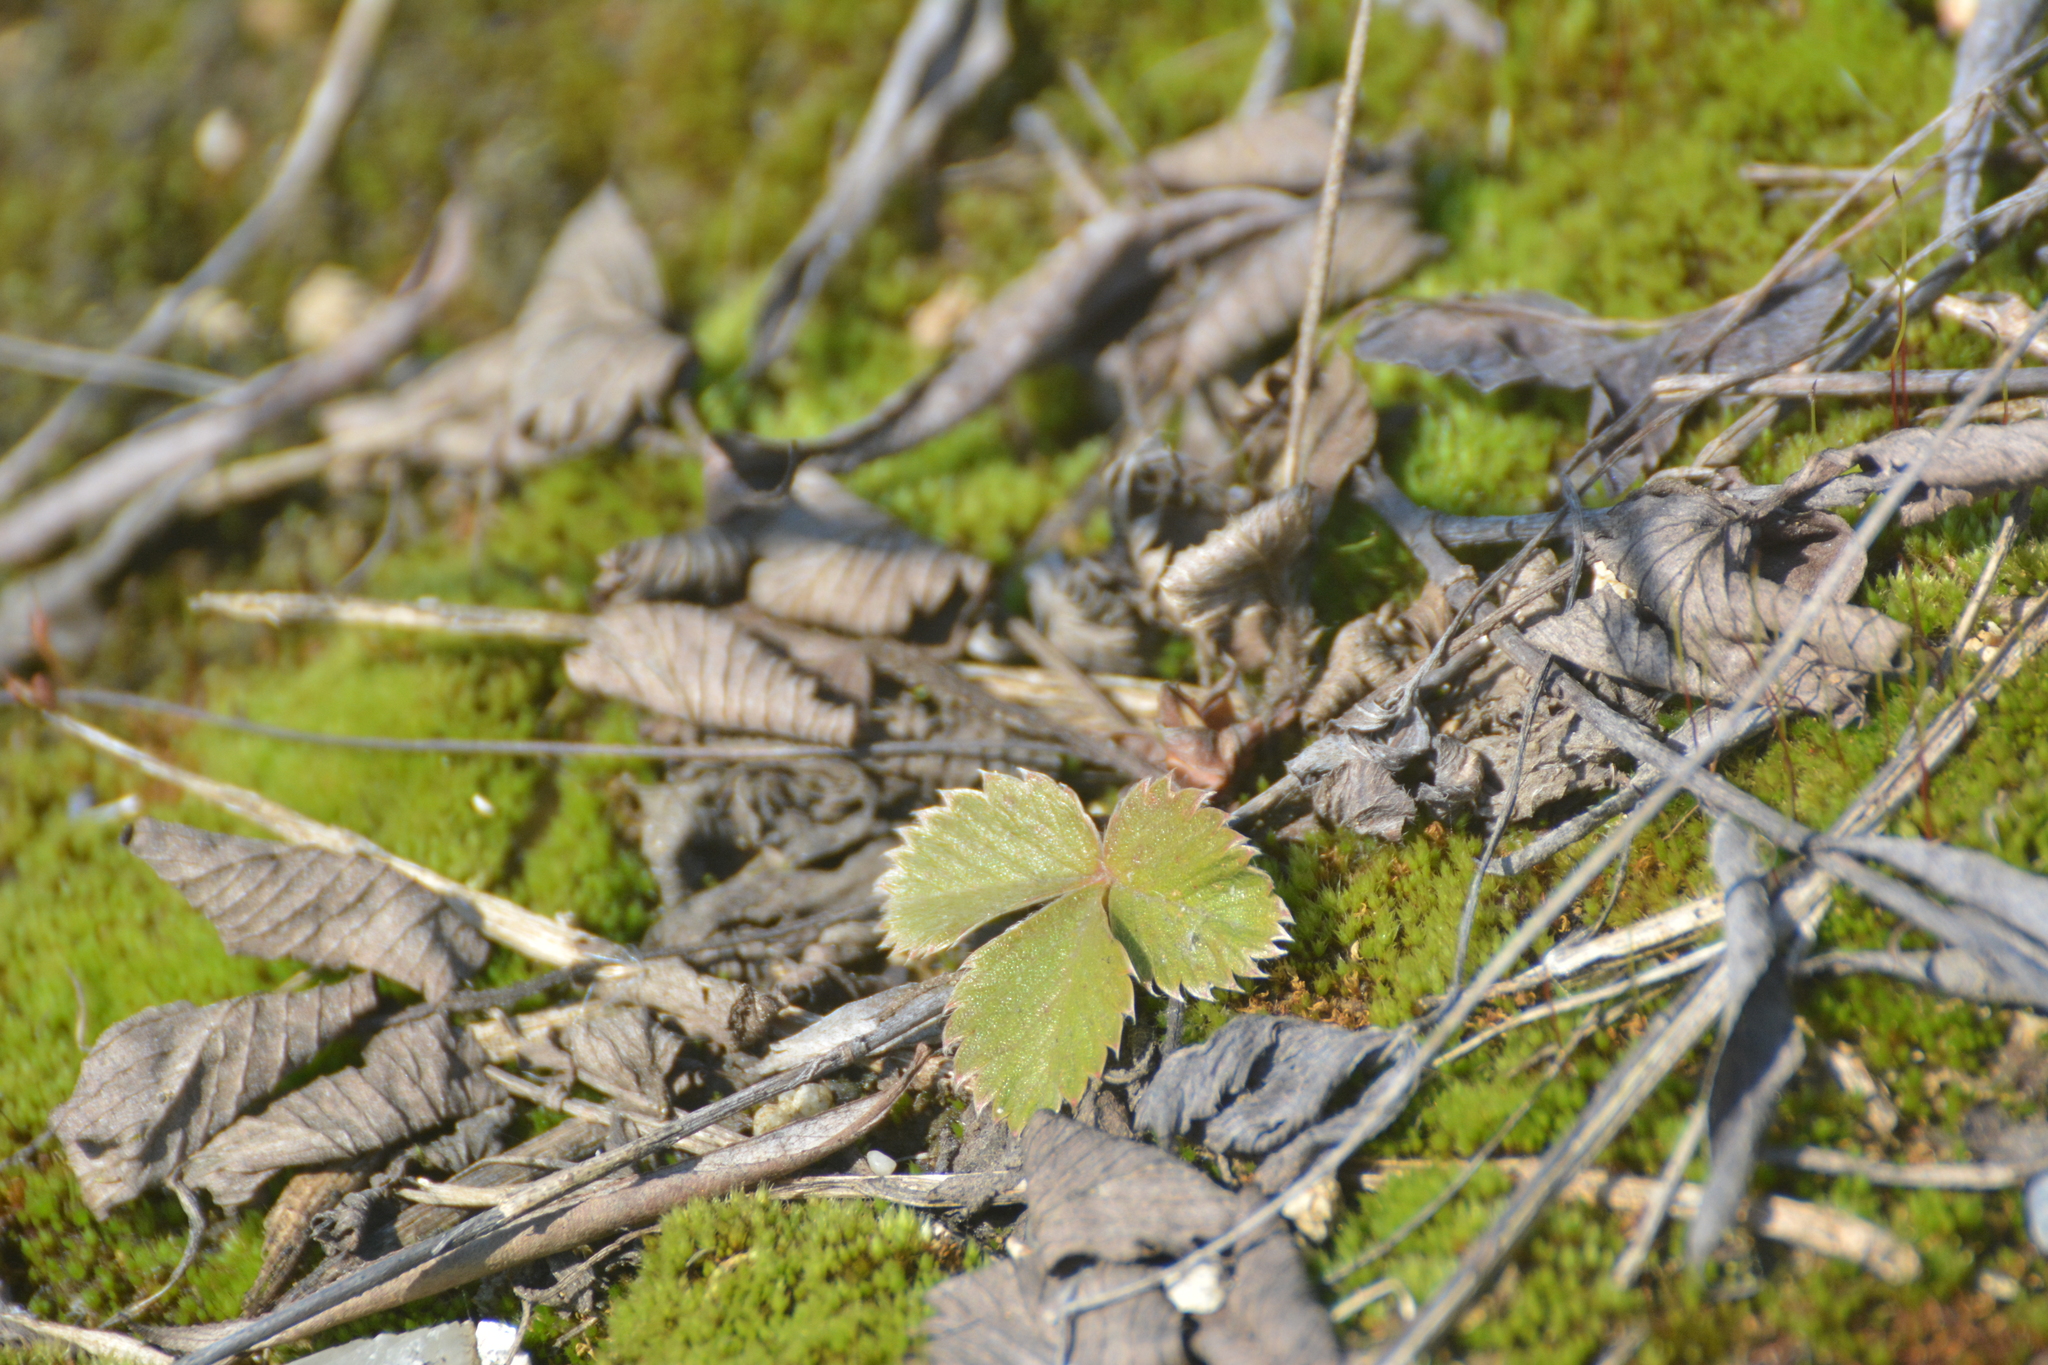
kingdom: Plantae
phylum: Tracheophyta
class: Magnoliopsida
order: Rosales
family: Rosaceae
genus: Fragaria
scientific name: Fragaria vesca
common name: Wild strawberry
